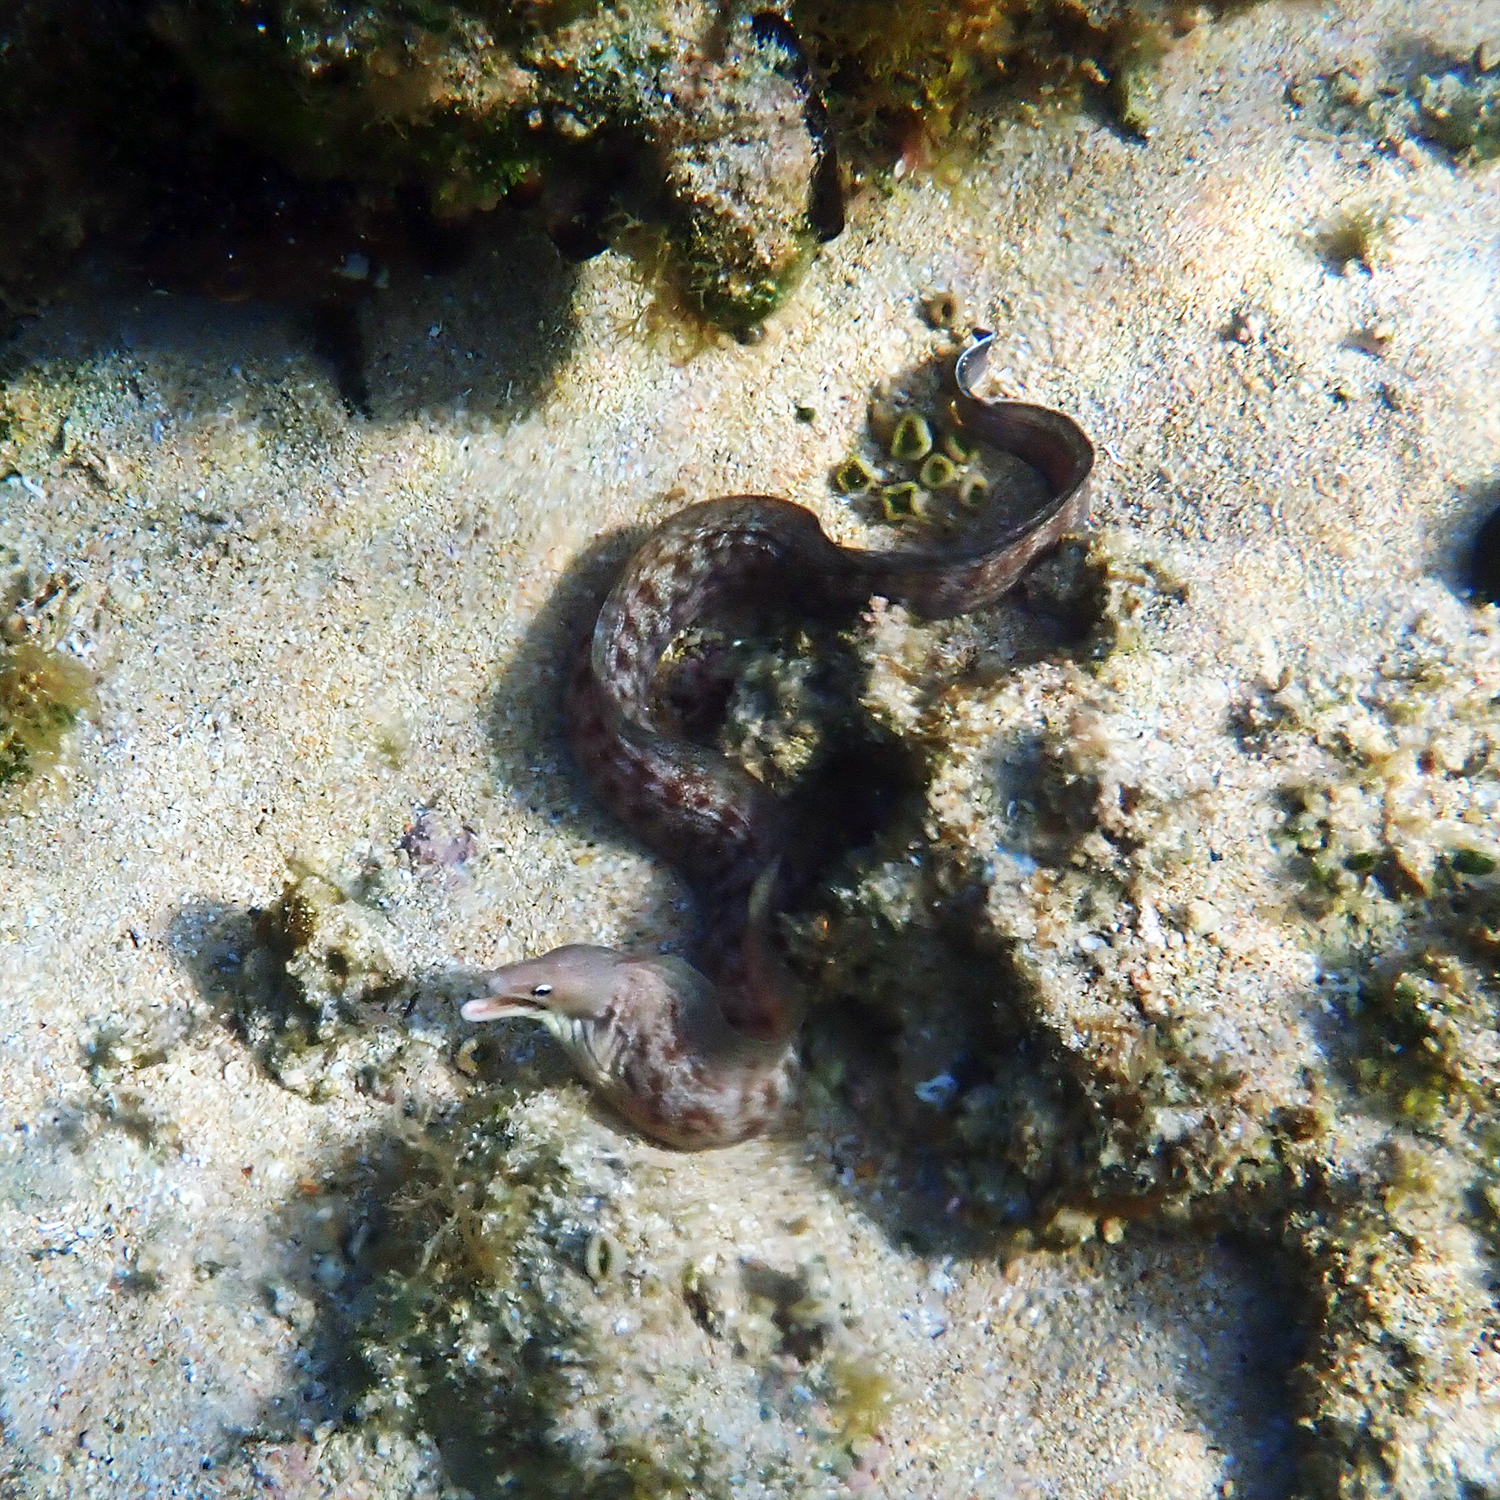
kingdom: Animalia
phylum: Chordata
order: Anguilliformes
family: Muraenidae
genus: Gymnothorax
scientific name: Gymnothorax nubilus
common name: Grey moray
